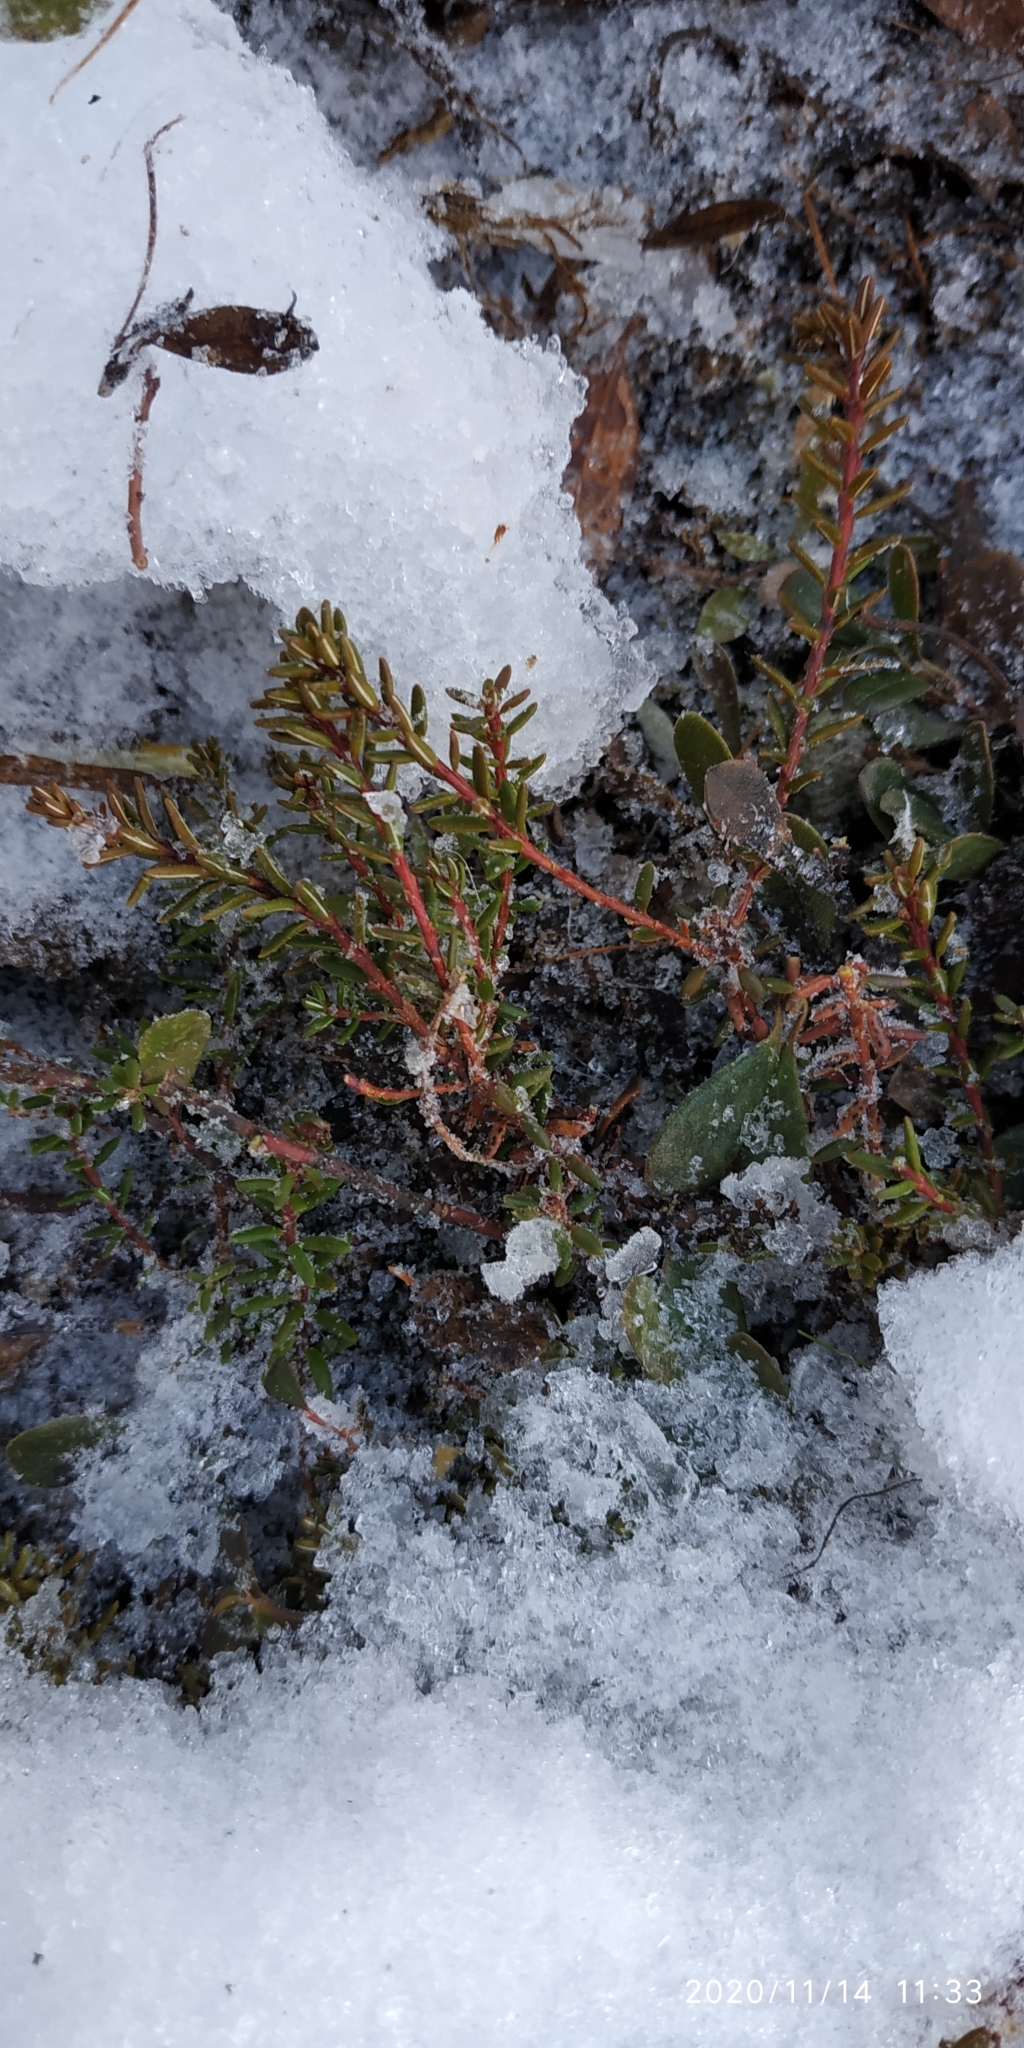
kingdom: Plantae
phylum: Tracheophyta
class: Magnoliopsida
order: Ericales
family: Ericaceae
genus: Empetrum
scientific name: Empetrum nigrum
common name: Black crowberry
